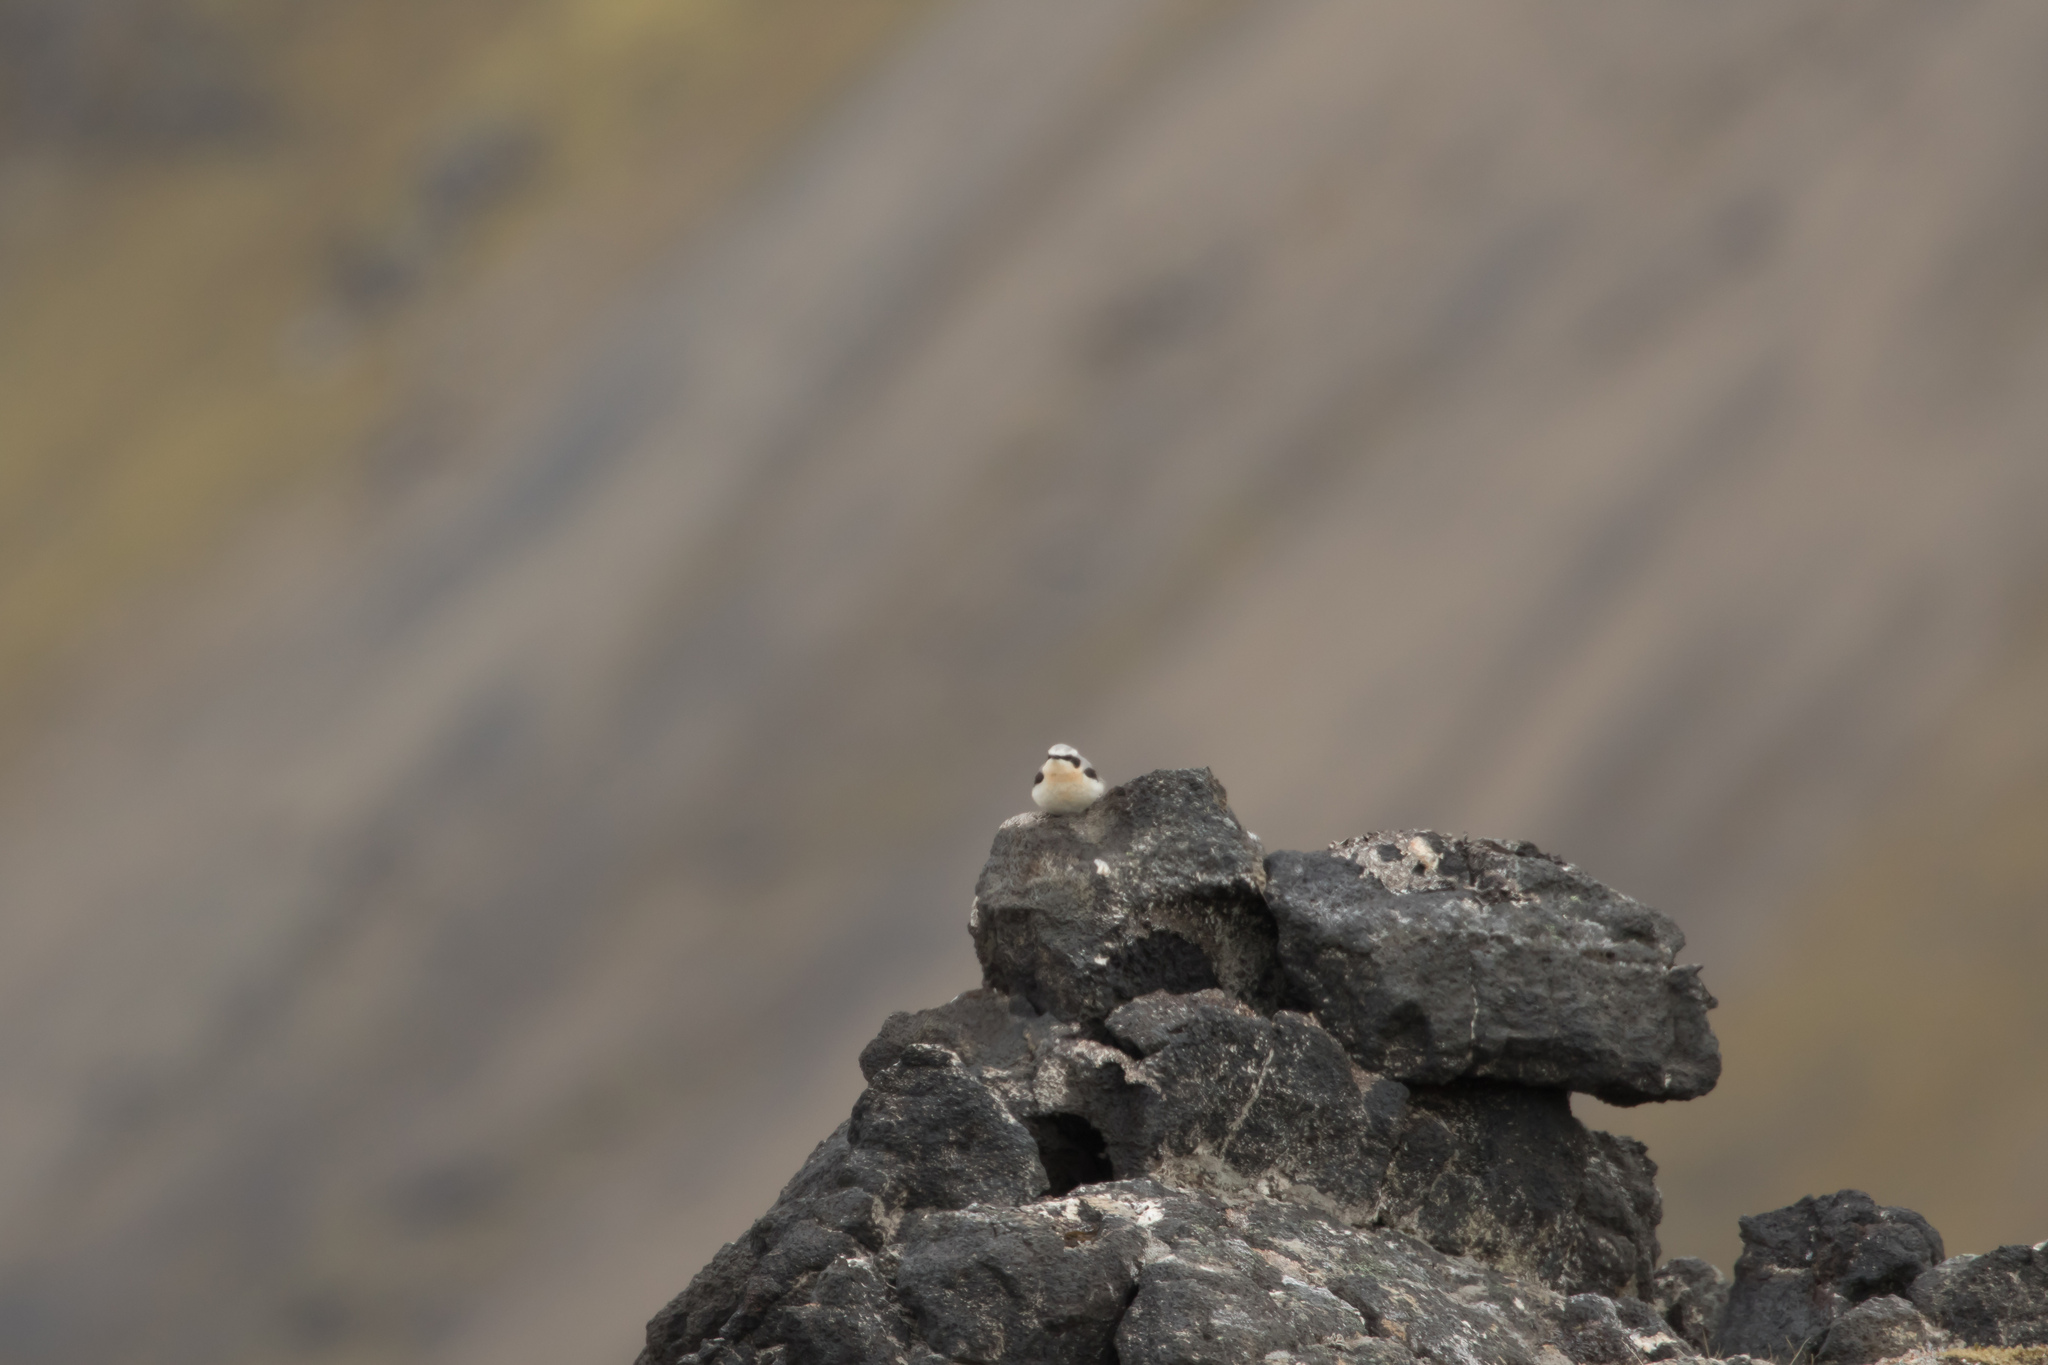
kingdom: Animalia
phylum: Chordata
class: Aves
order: Passeriformes
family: Muscicapidae
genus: Oenanthe
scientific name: Oenanthe oenanthe
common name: Northern wheatear
